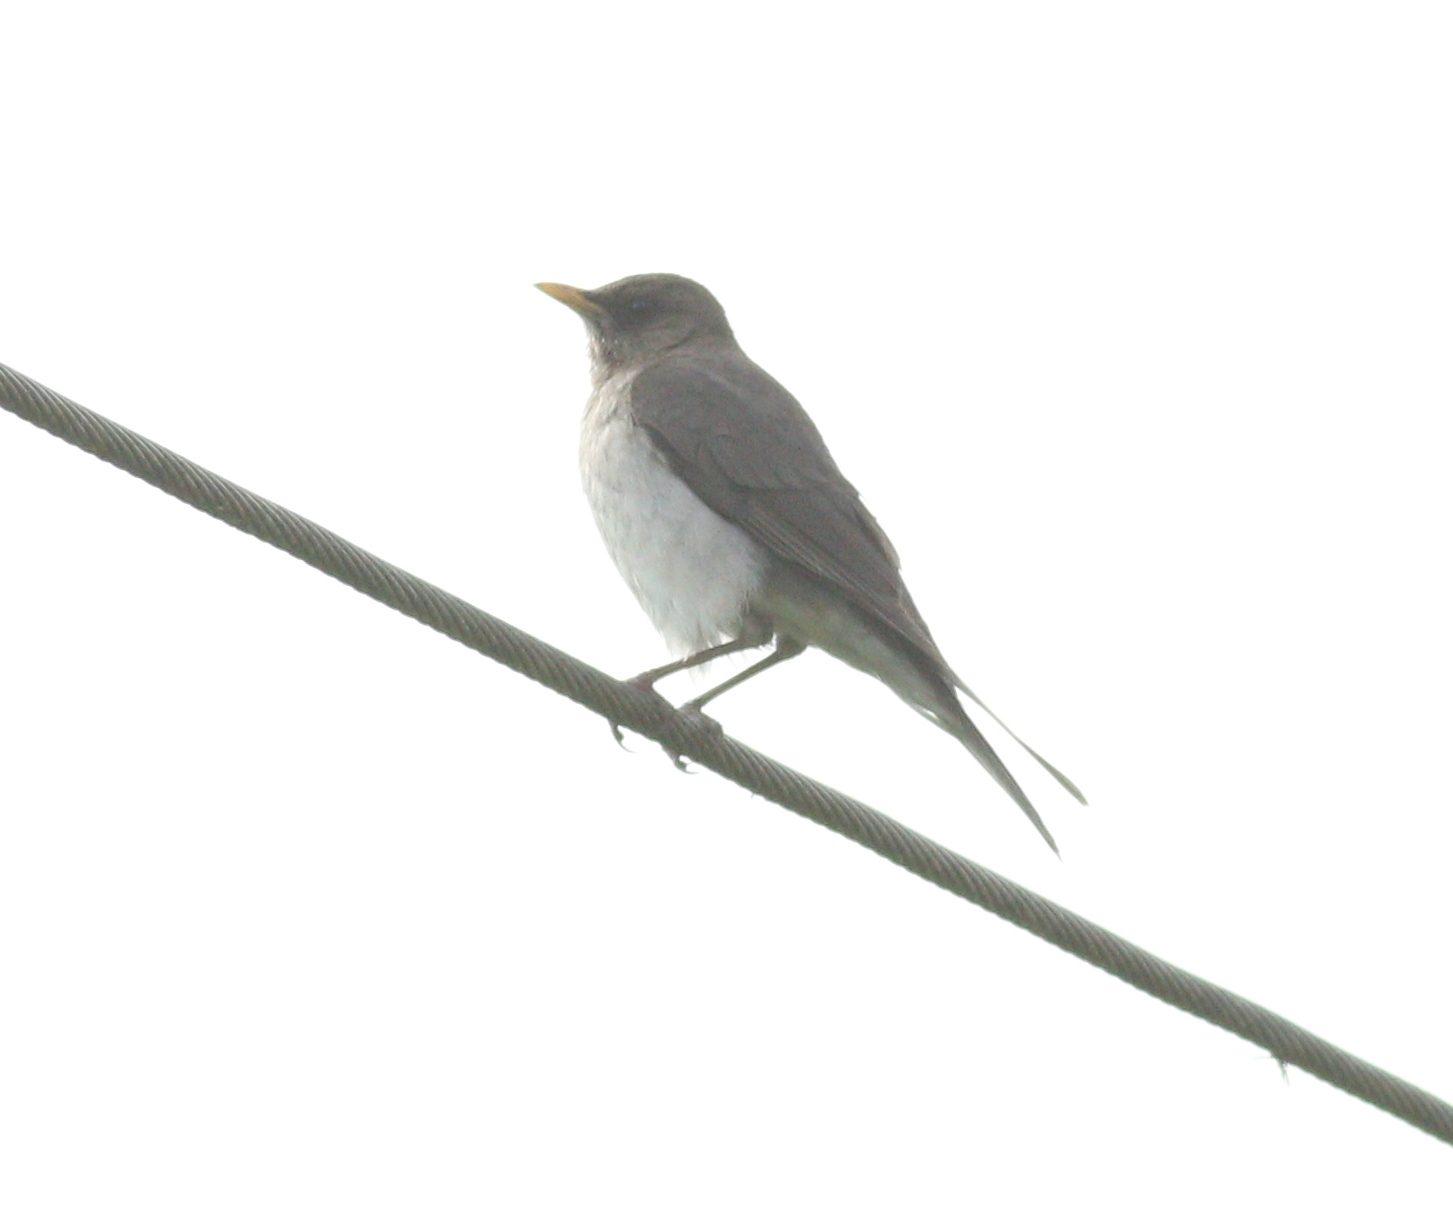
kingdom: Animalia
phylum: Chordata
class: Aves
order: Passeriformes
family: Turdidae
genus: Turdus
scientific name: Turdus amaurochalinus
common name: Creamy-bellied thrush
